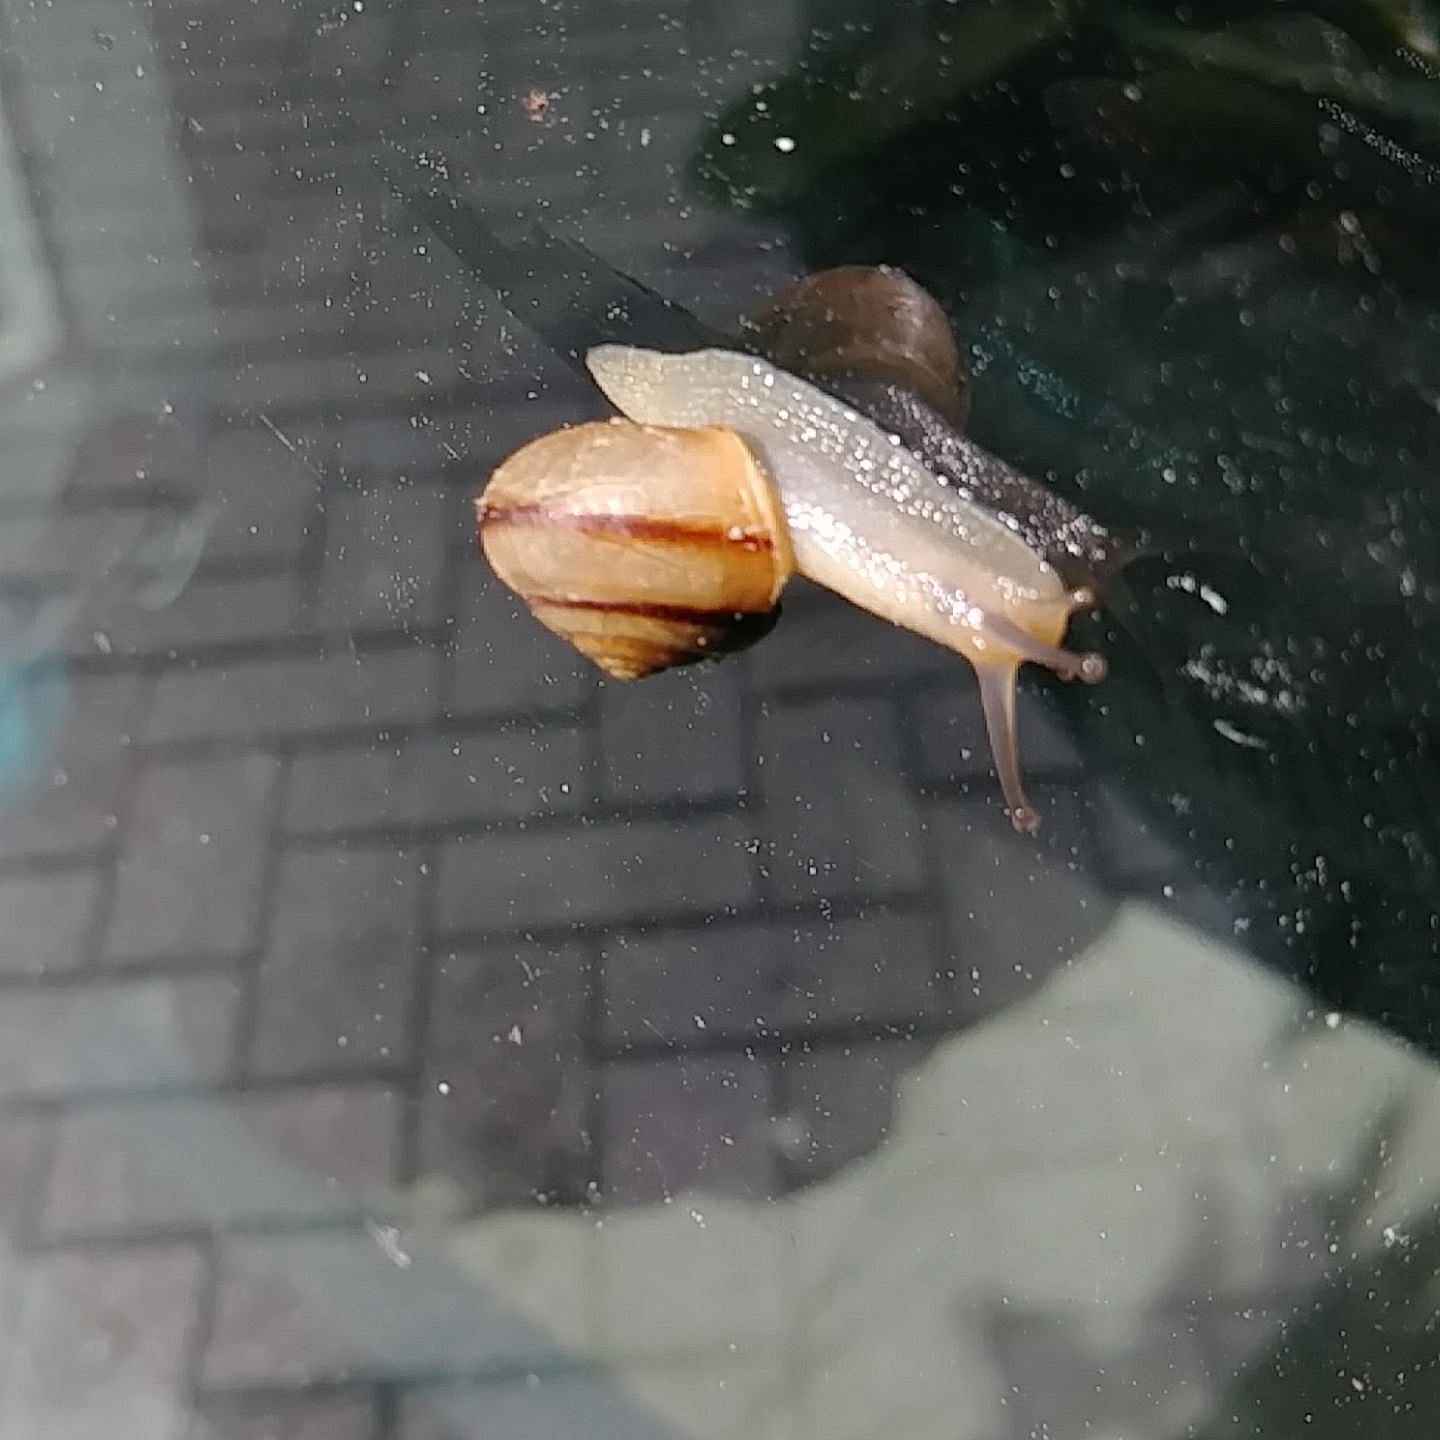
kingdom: Animalia
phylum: Mollusca
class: Gastropoda
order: Stylommatophora
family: Camaenidae
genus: Bradybaena
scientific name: Bradybaena similaris
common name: Asian trampsnail
